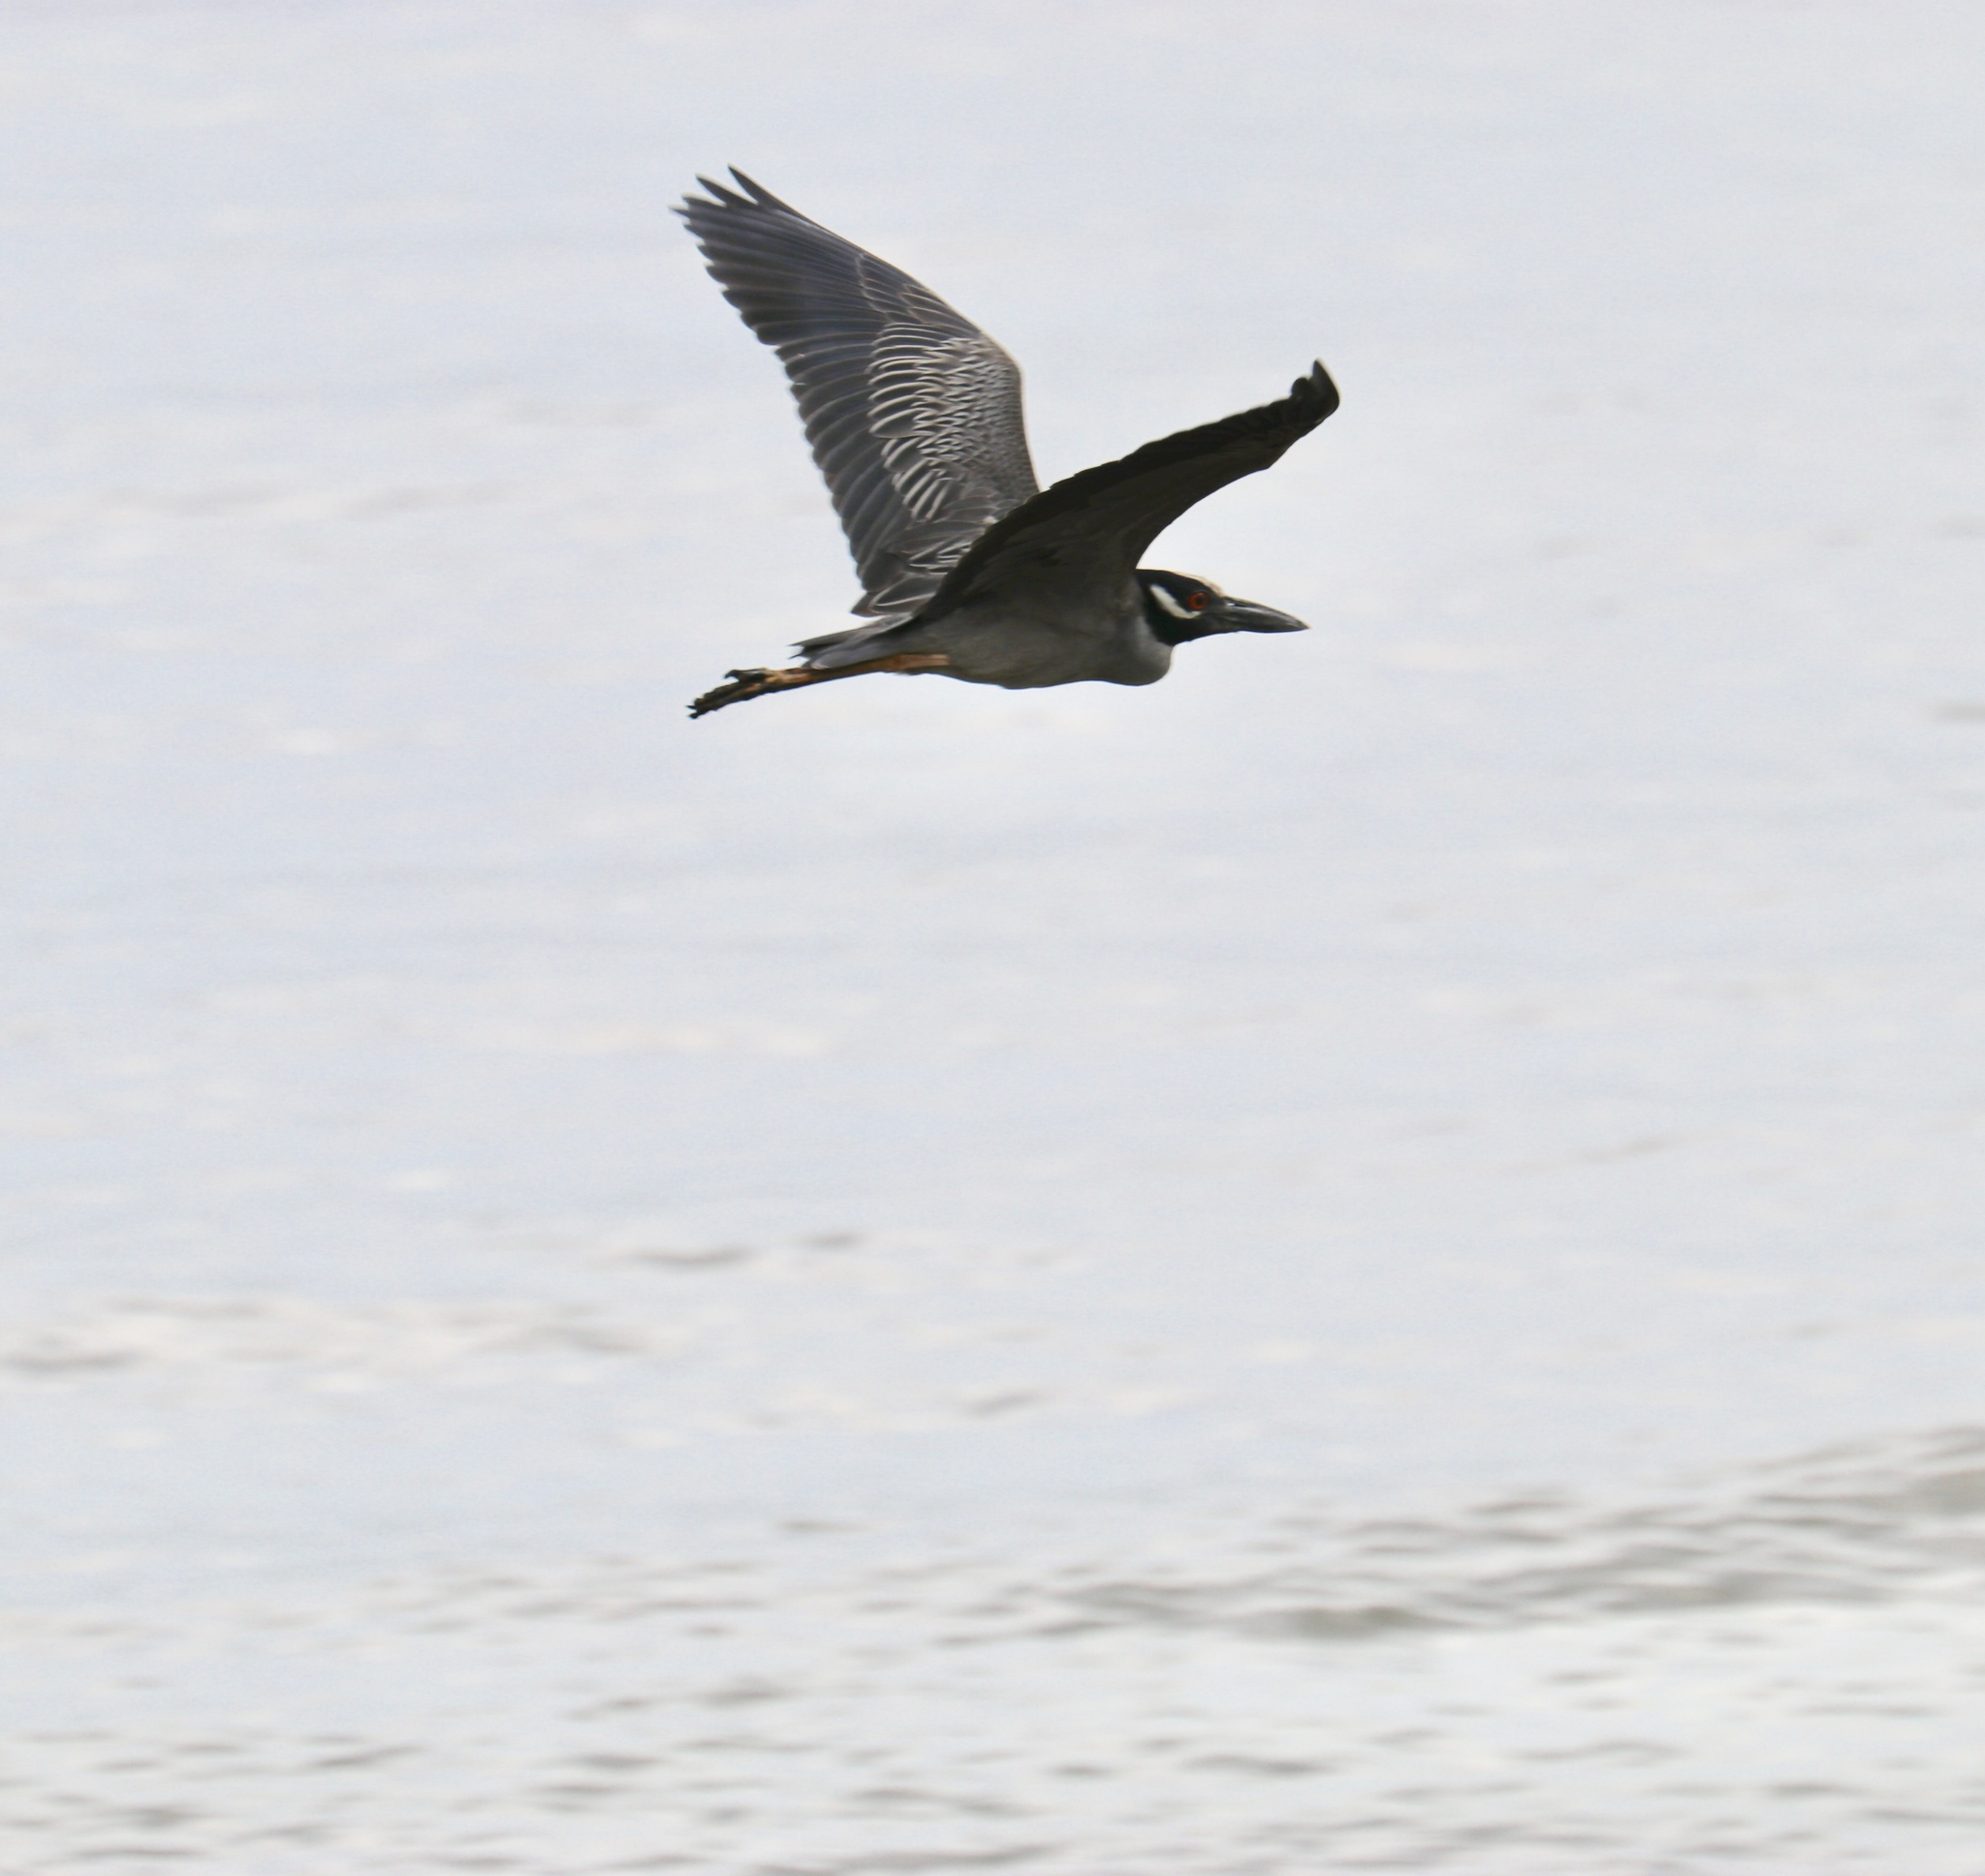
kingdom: Animalia
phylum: Chordata
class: Aves
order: Pelecaniformes
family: Ardeidae
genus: Nyctanassa
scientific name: Nyctanassa violacea
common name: Yellow-crowned night heron
